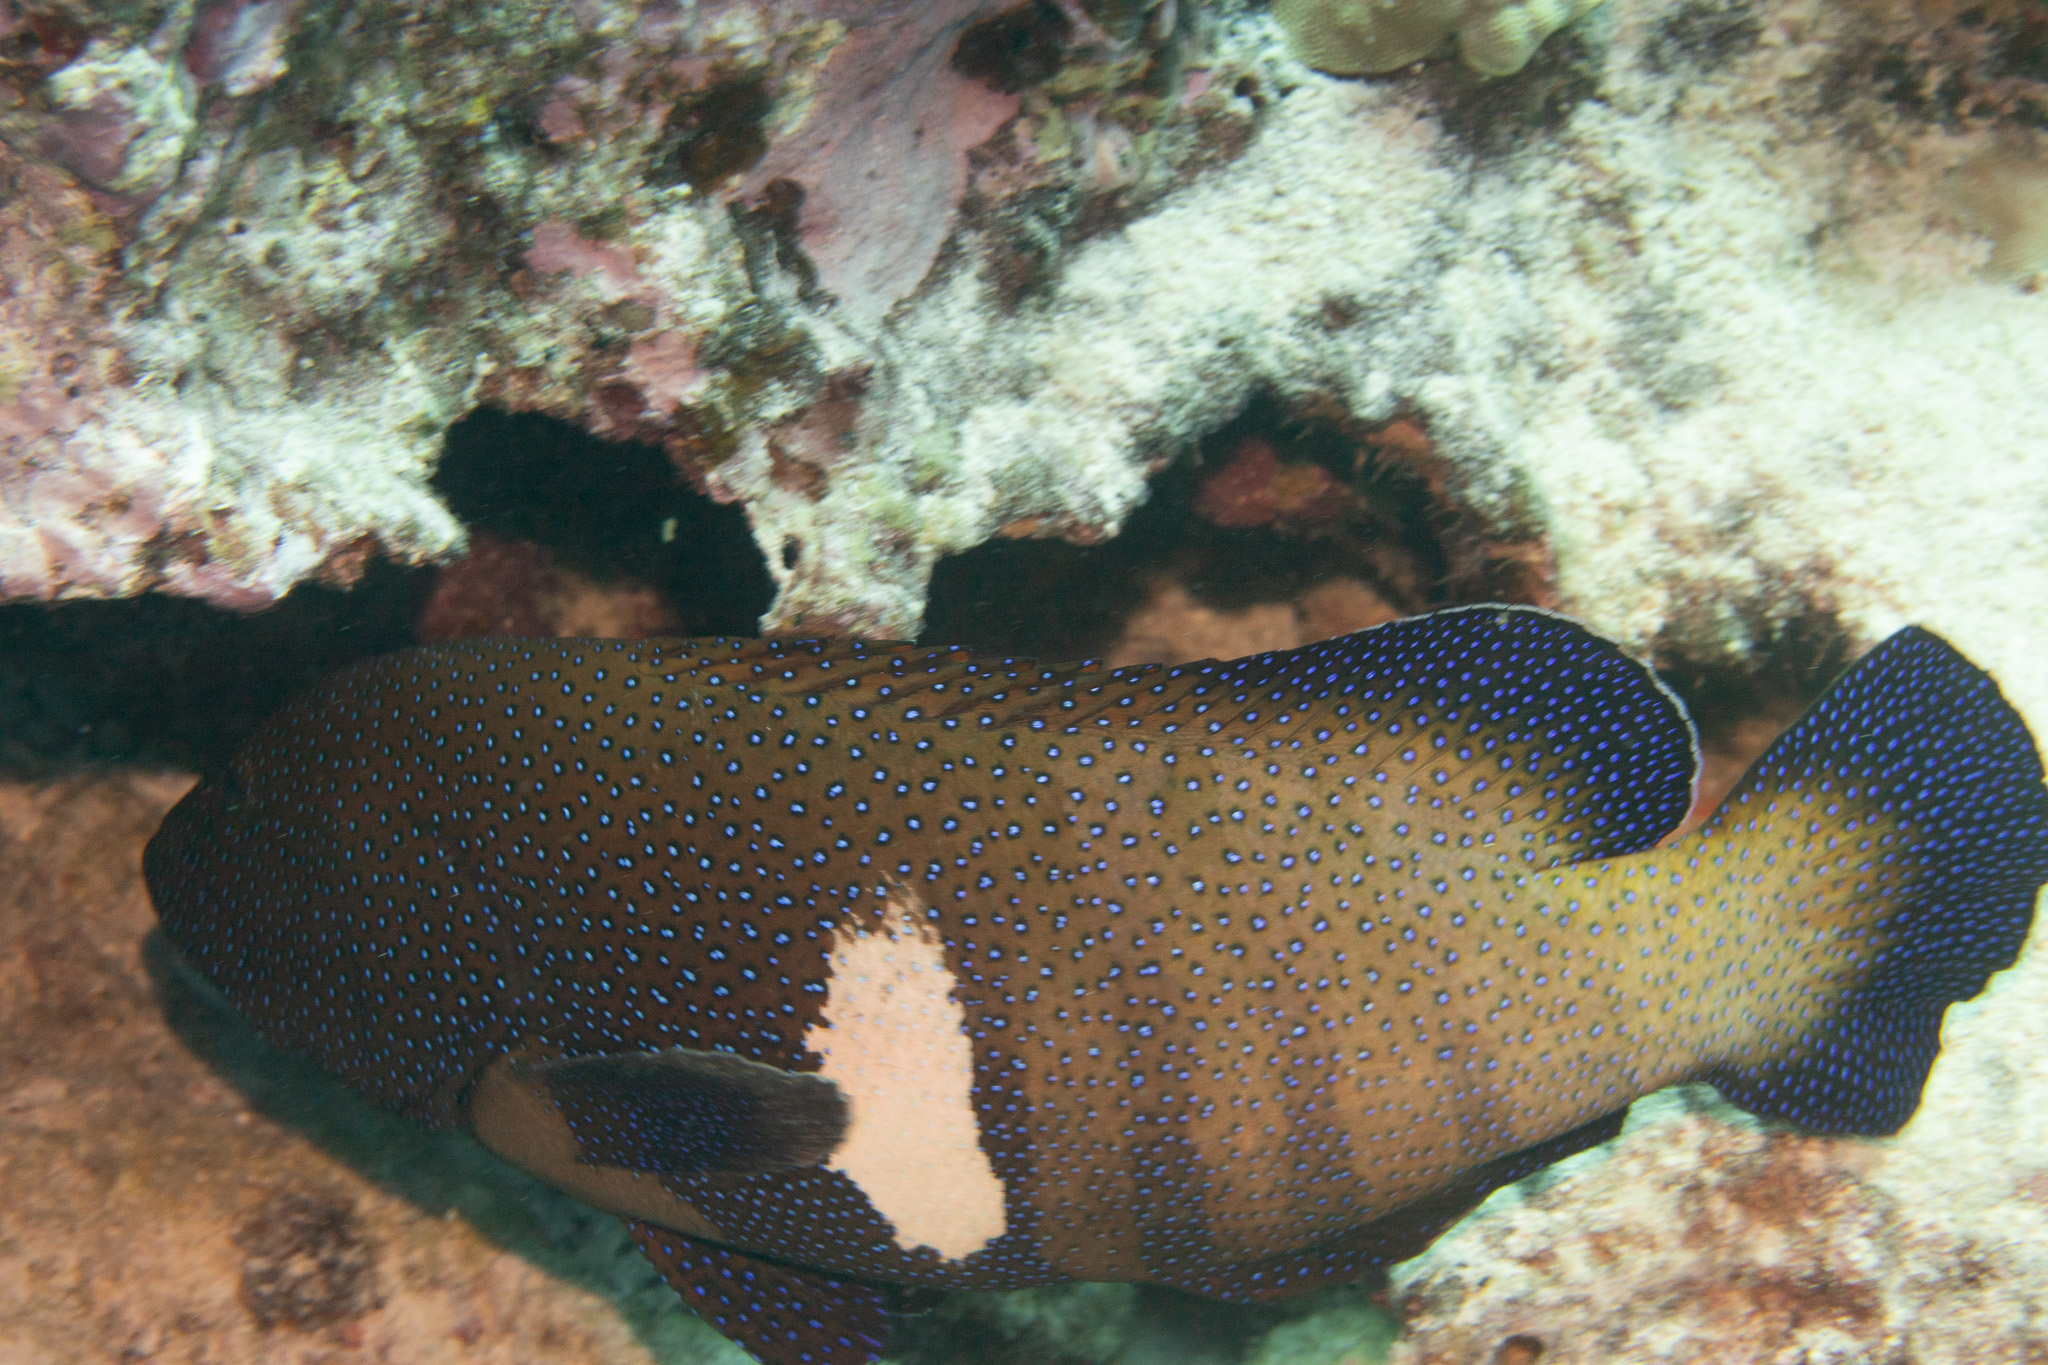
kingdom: Animalia
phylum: Chordata
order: Perciformes
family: Serranidae
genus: Cephalopholis
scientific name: Cephalopholis argus
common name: Peacock grouper
